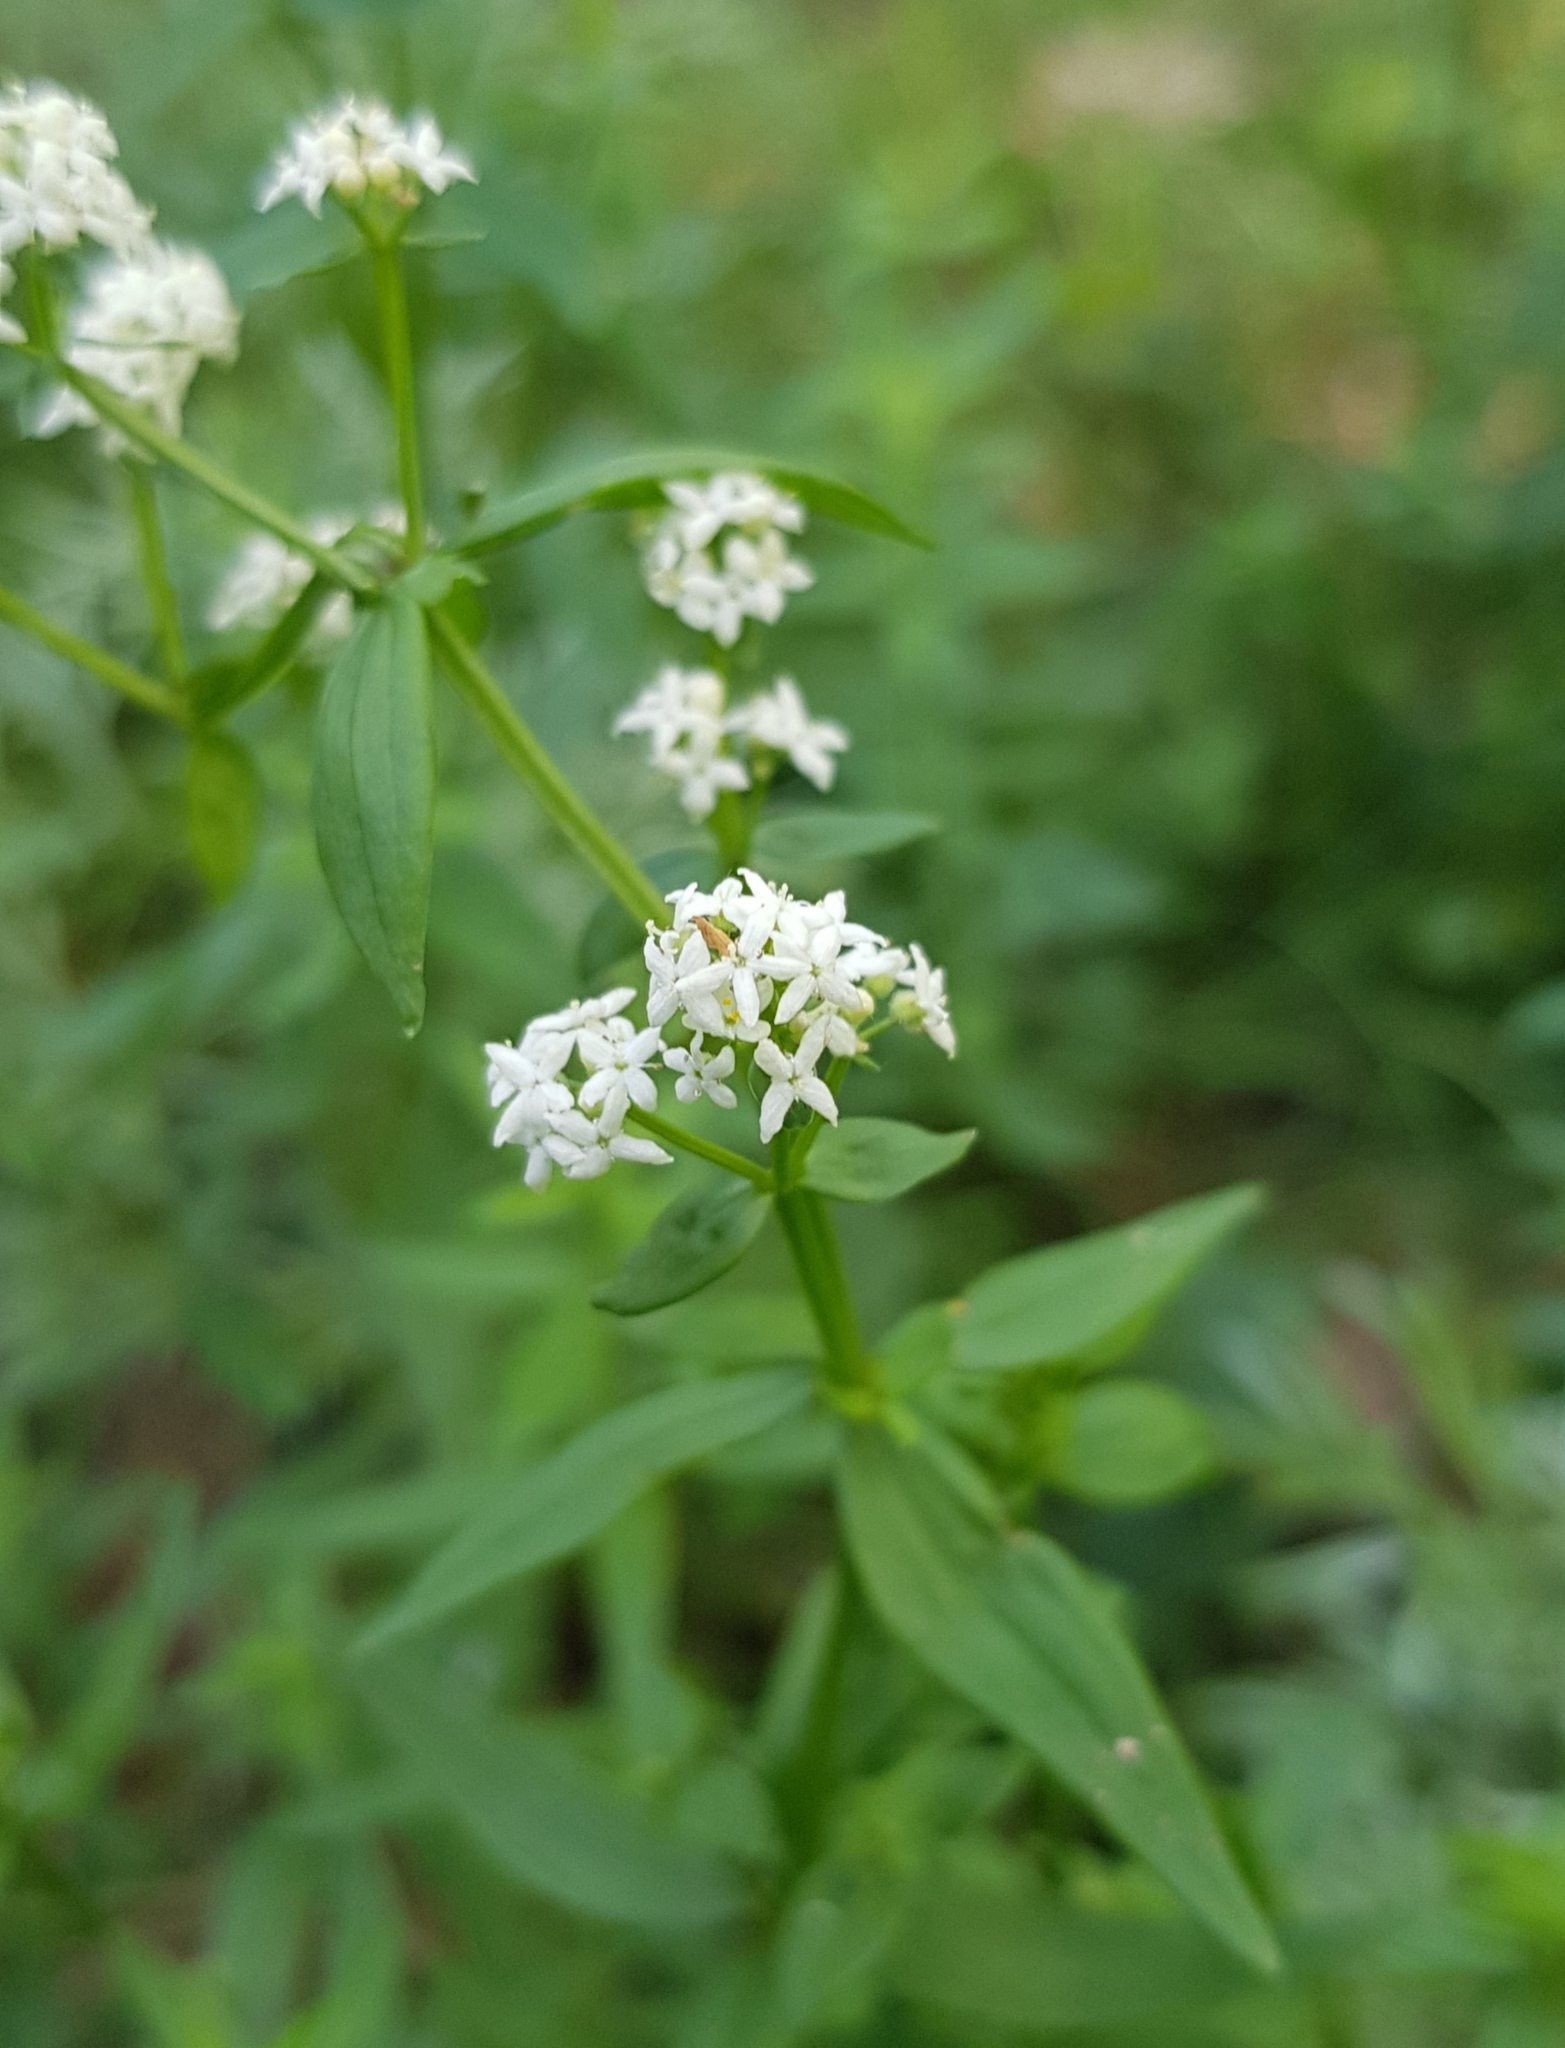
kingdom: Plantae
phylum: Tracheophyta
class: Magnoliopsida
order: Gentianales
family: Rubiaceae
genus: Galium
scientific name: Galium boreale
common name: Northern bedstraw
